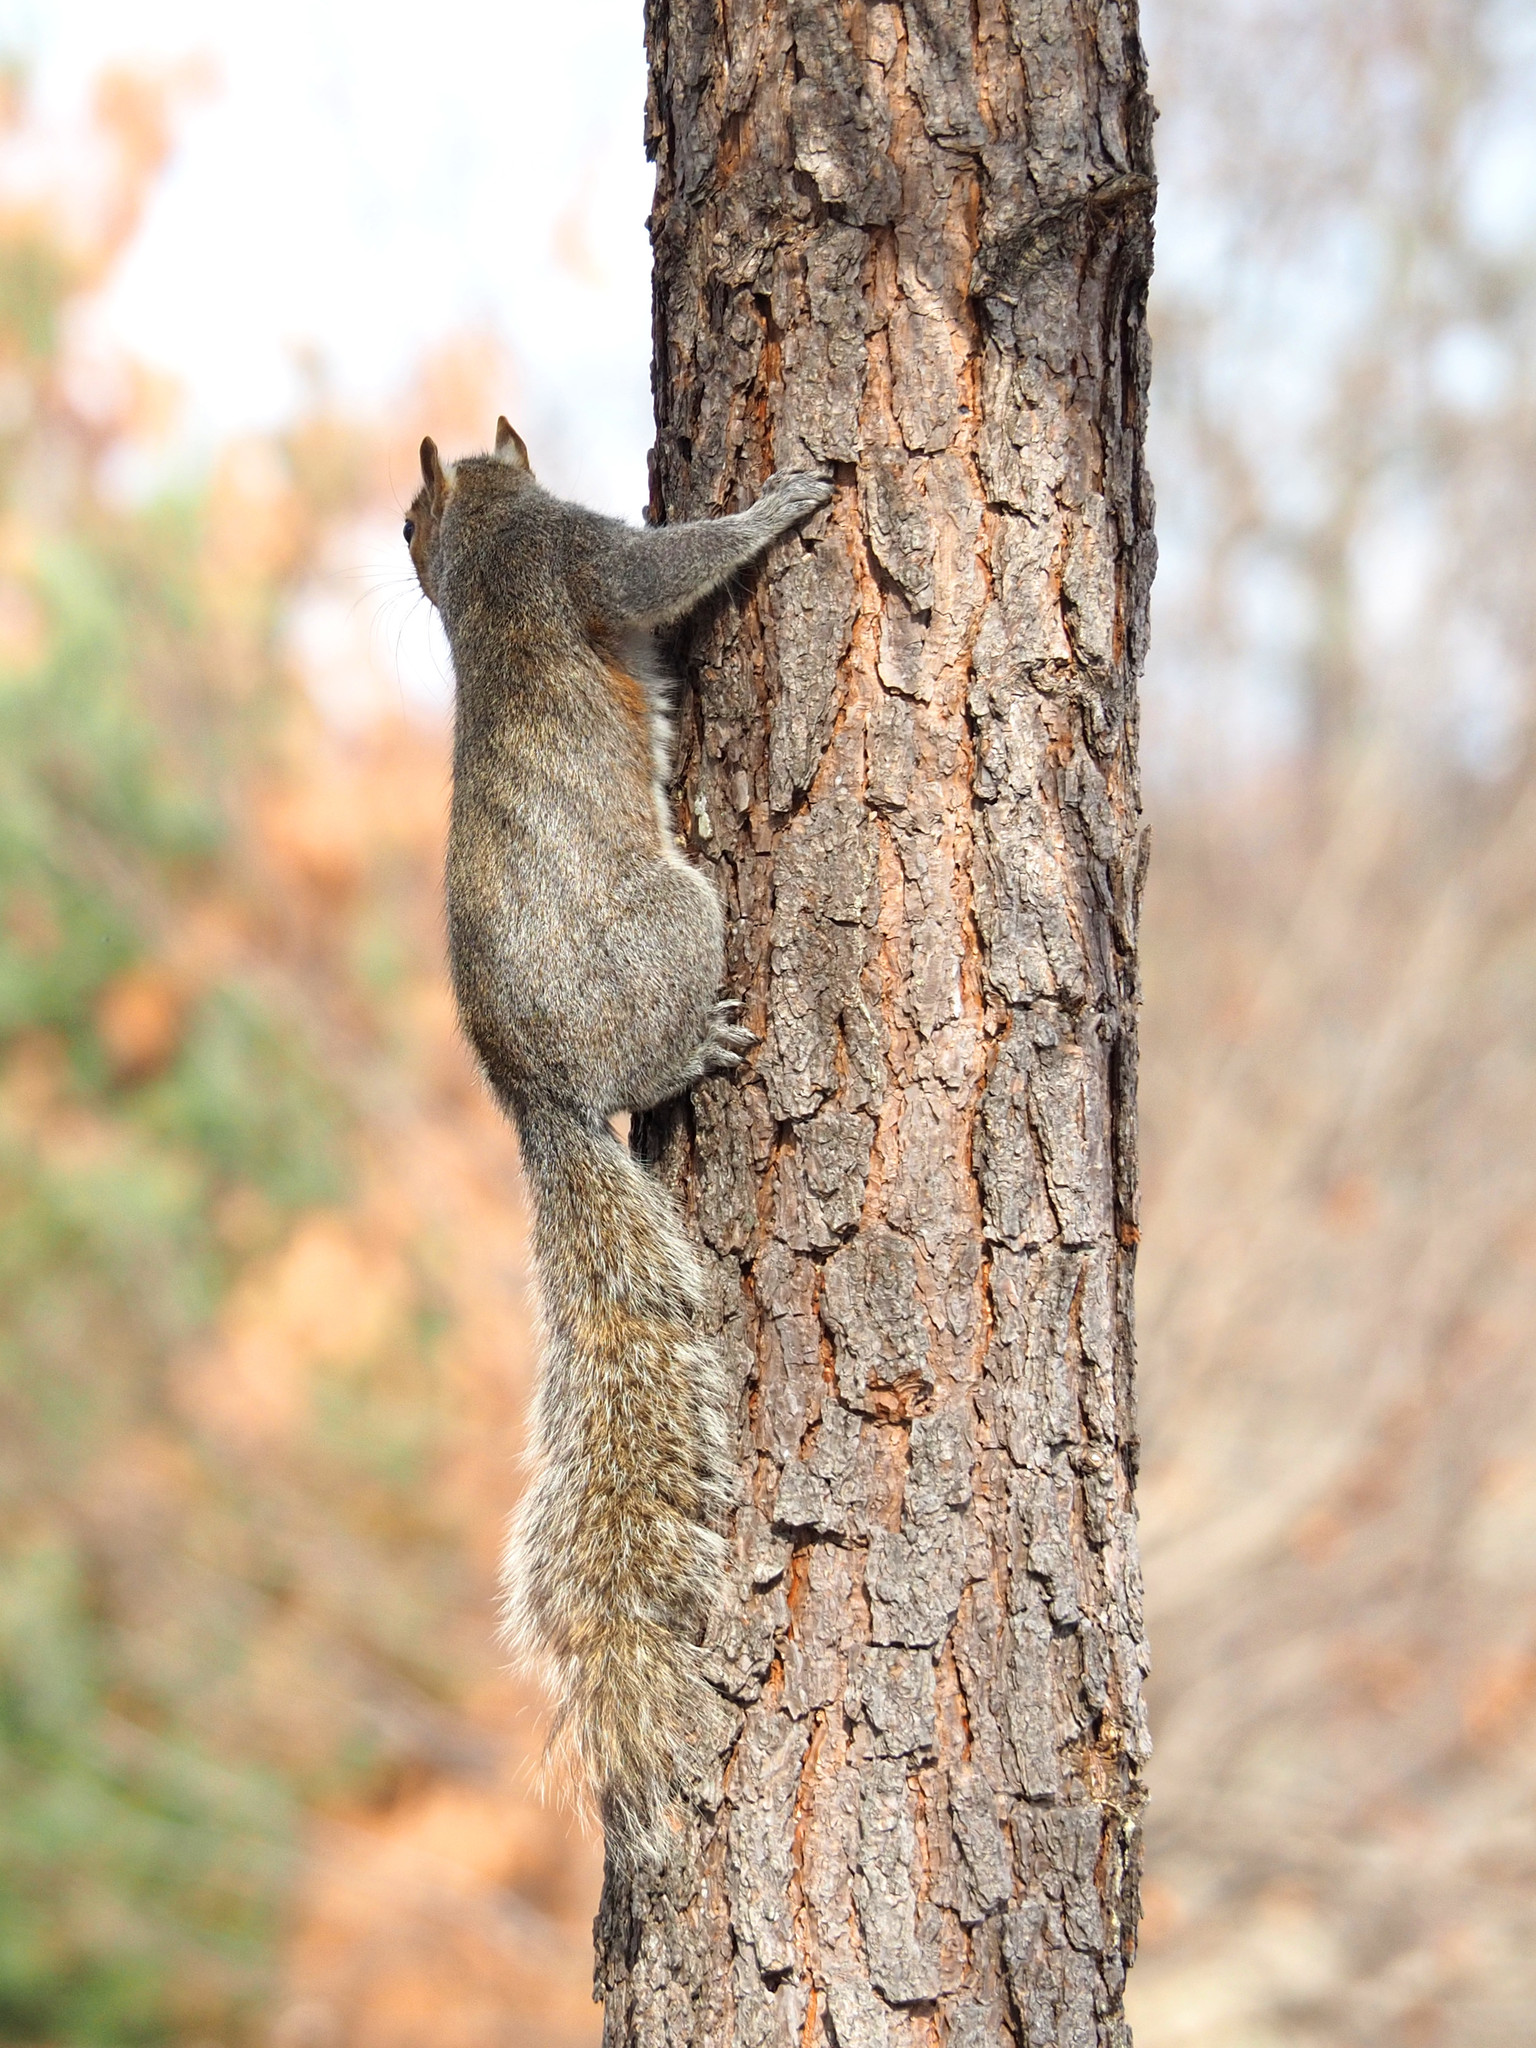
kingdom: Animalia
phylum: Chordata
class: Mammalia
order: Rodentia
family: Sciuridae
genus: Sciurus
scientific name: Sciurus carolinensis
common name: Eastern gray squirrel
